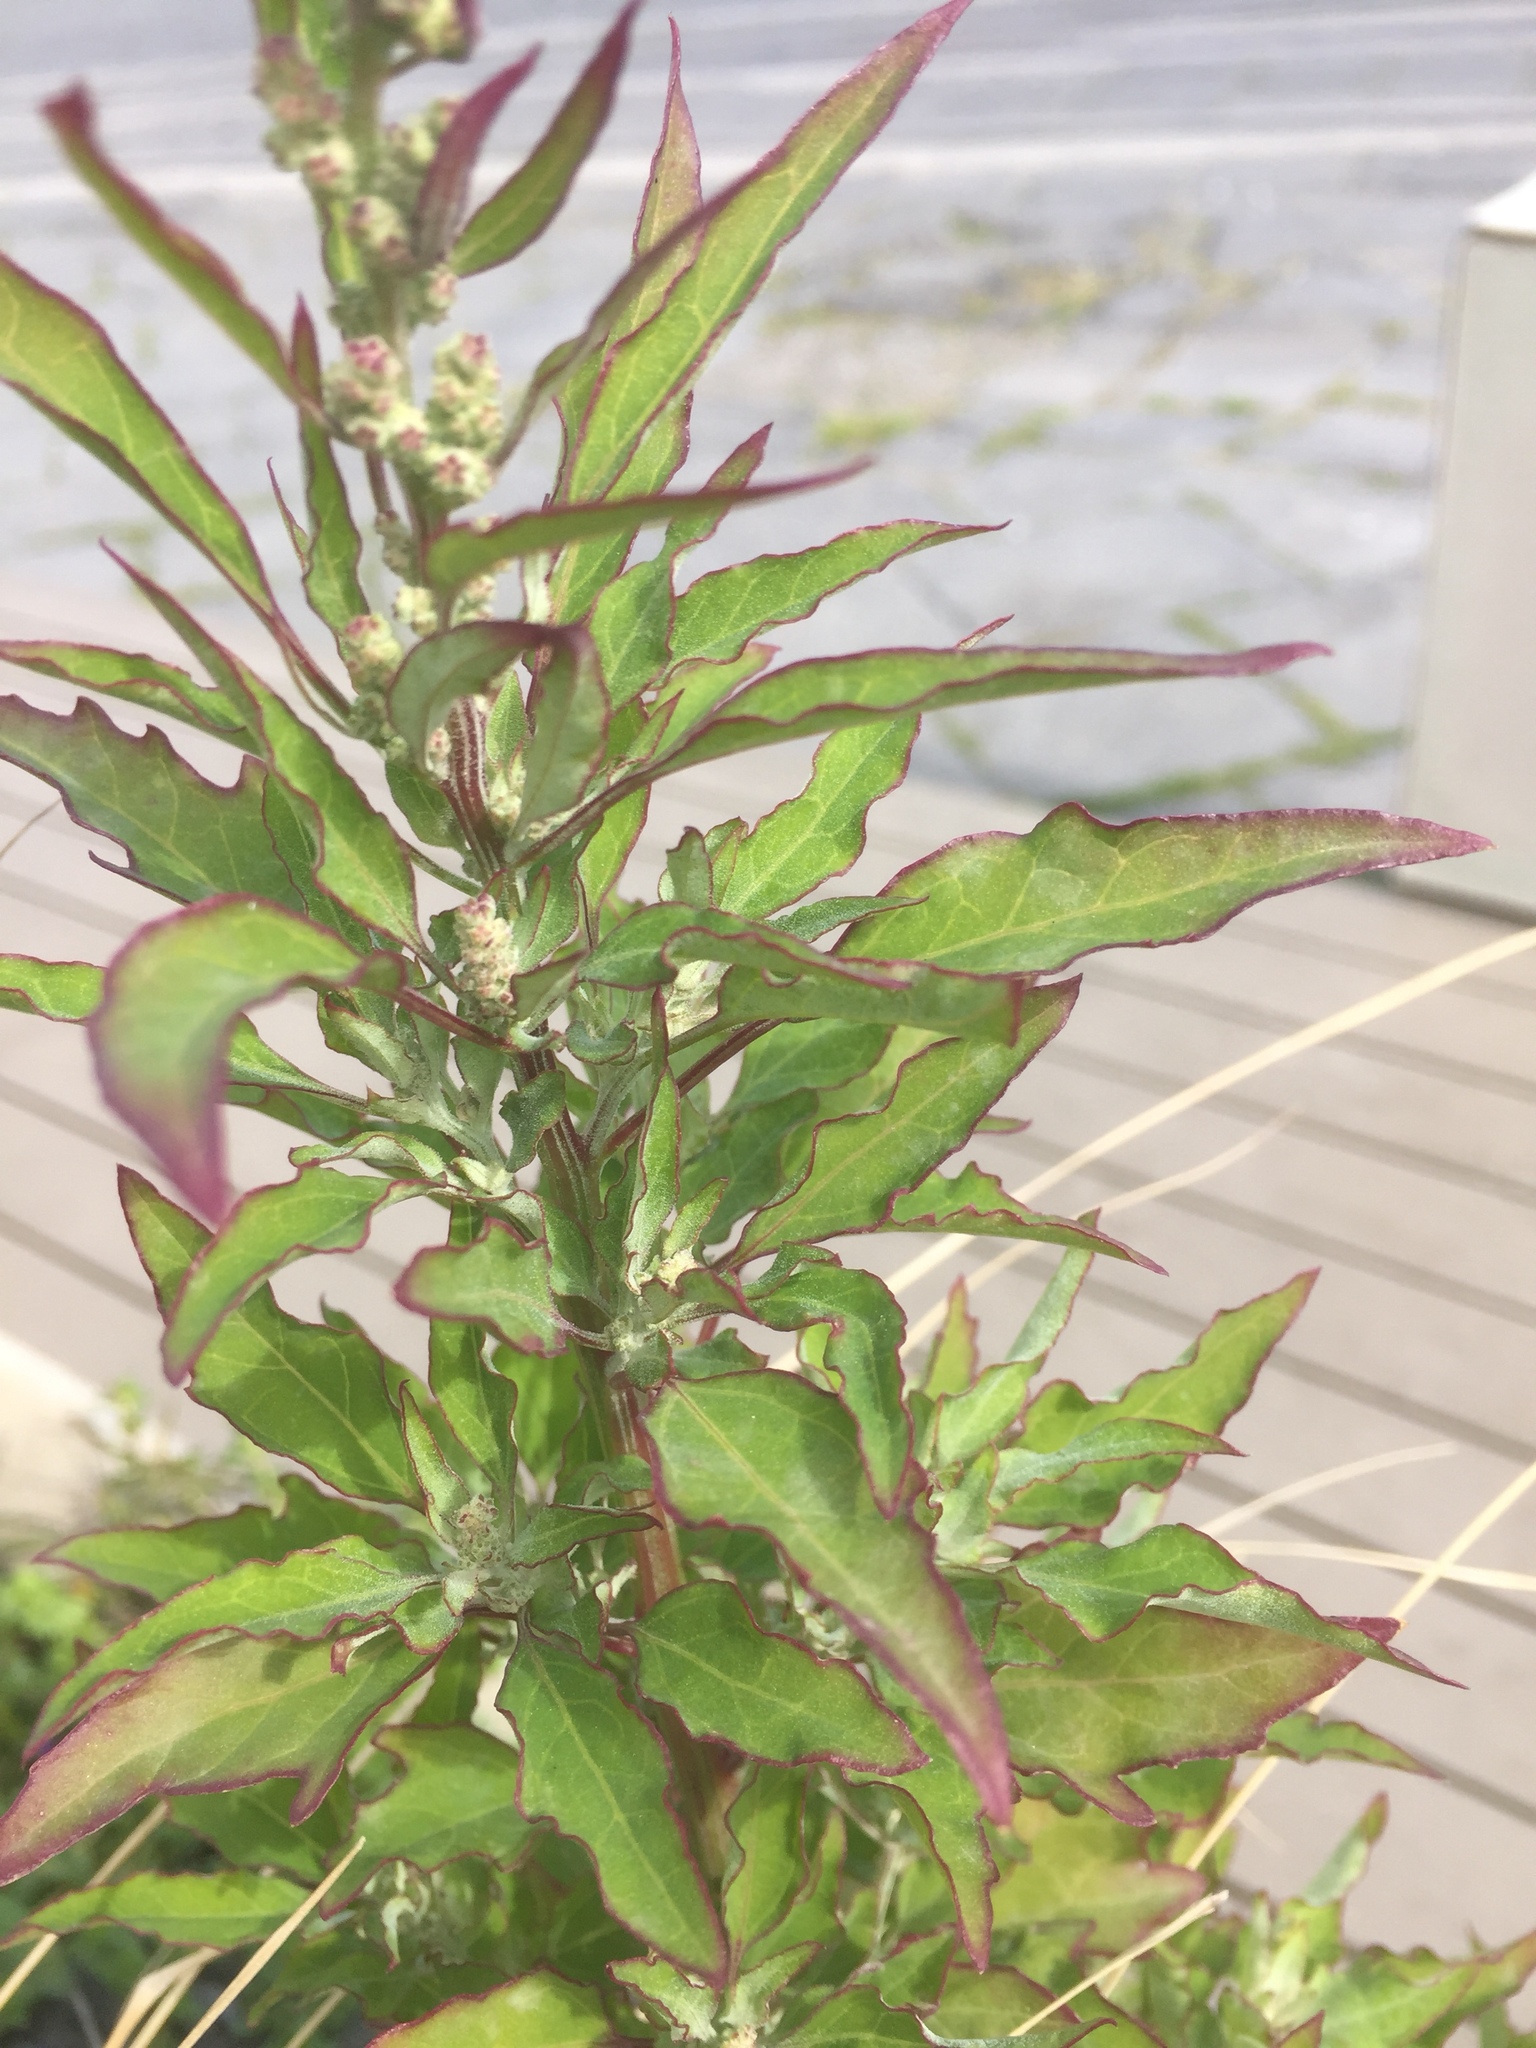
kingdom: Plantae
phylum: Tracheophyta
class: Magnoliopsida
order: Caryophyllales
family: Amaranthaceae
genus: Chenopodium
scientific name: Chenopodium album
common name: Fat-hen
